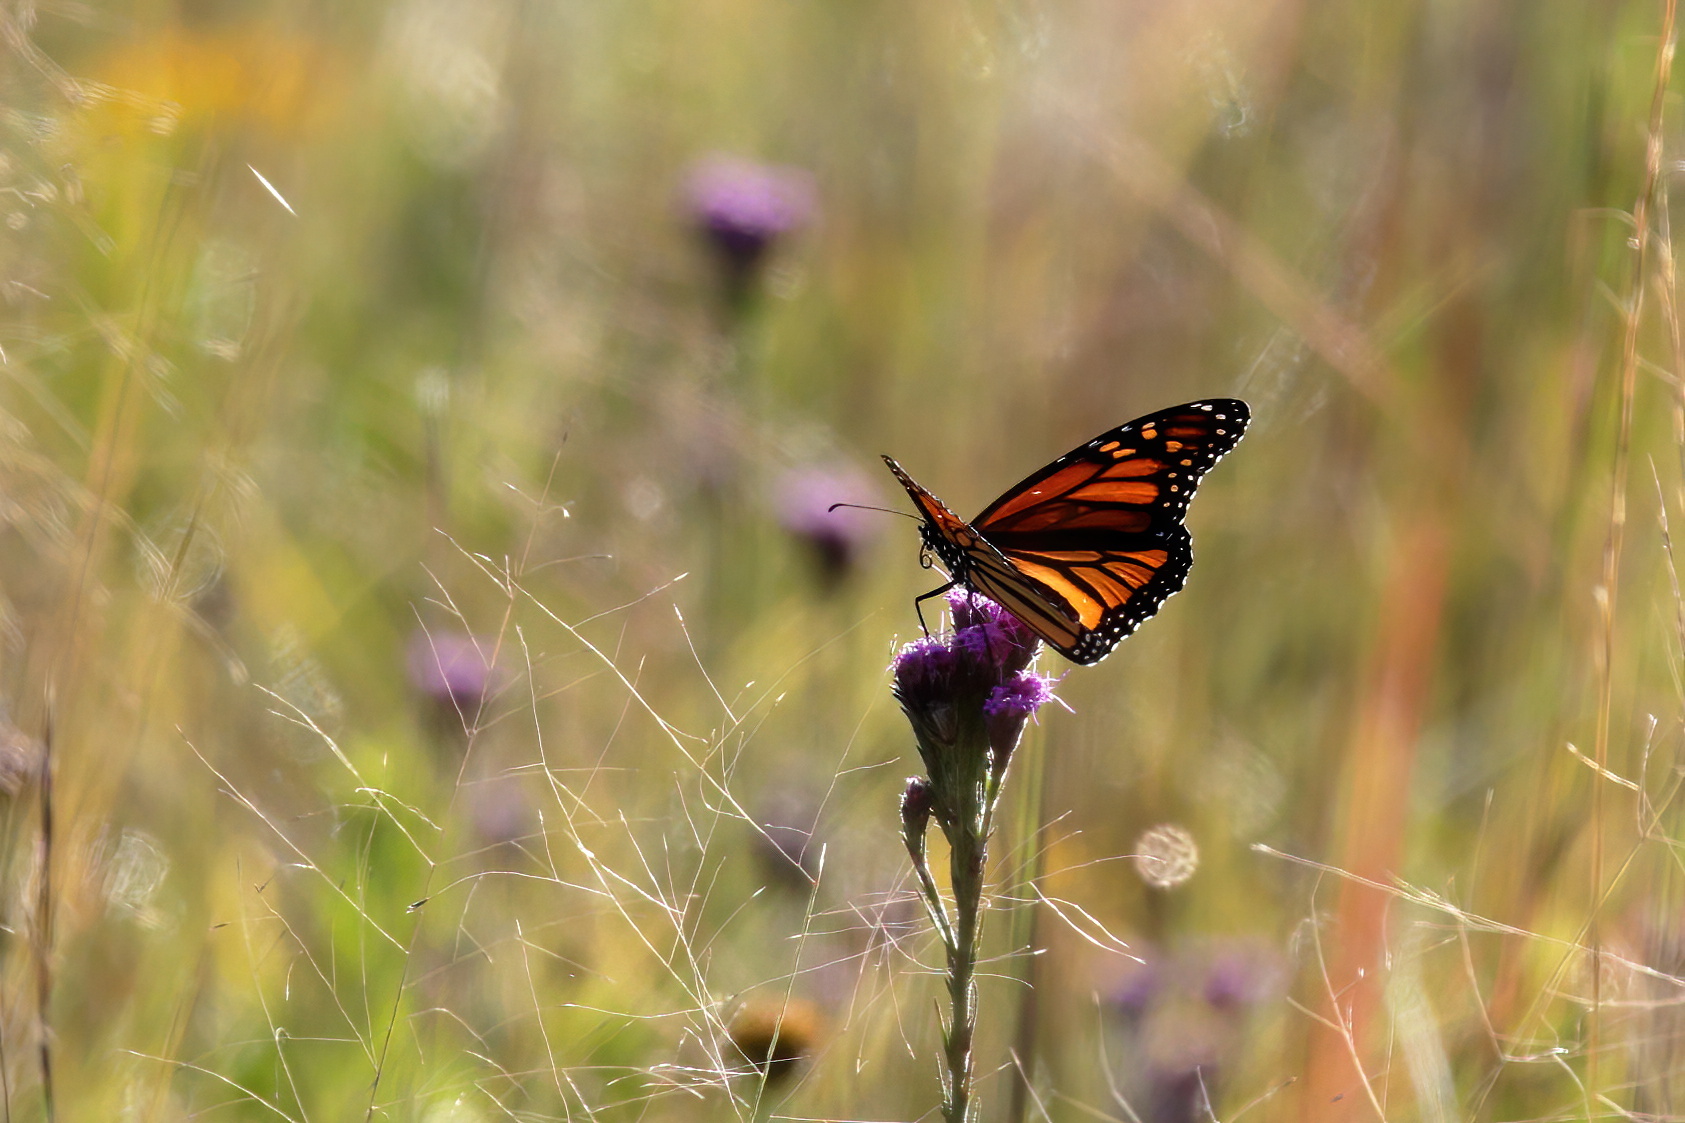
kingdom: Animalia
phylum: Arthropoda
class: Insecta
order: Lepidoptera
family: Nymphalidae
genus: Danaus
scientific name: Danaus plexippus
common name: Monarch
